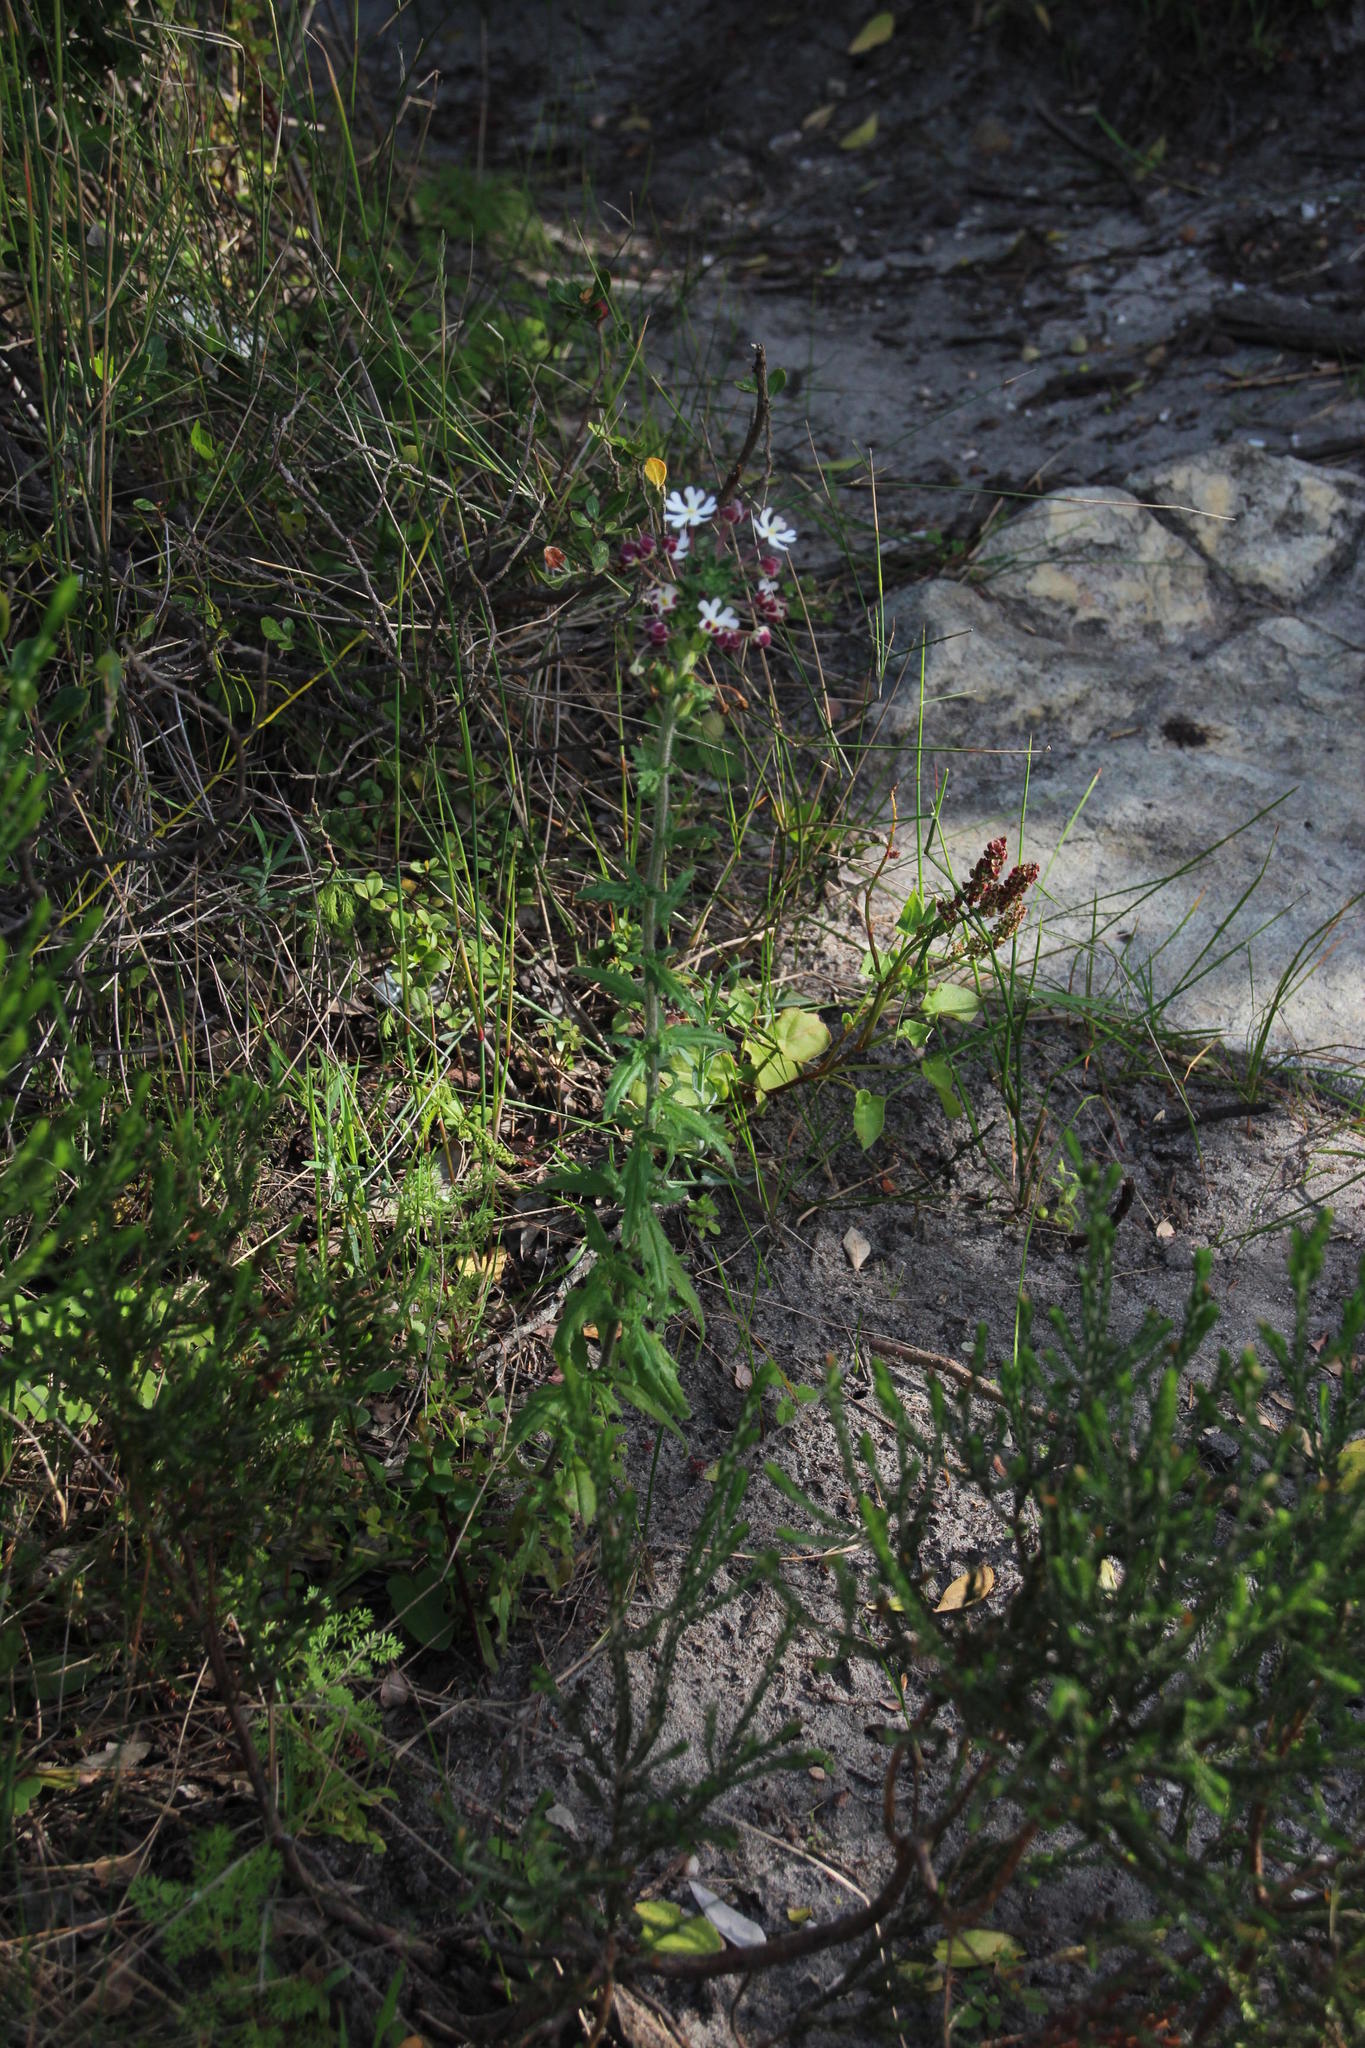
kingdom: Plantae
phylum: Tracheophyta
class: Magnoliopsida
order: Lamiales
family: Scrophulariaceae
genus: Zaluzianskya
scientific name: Zaluzianskya capensis
